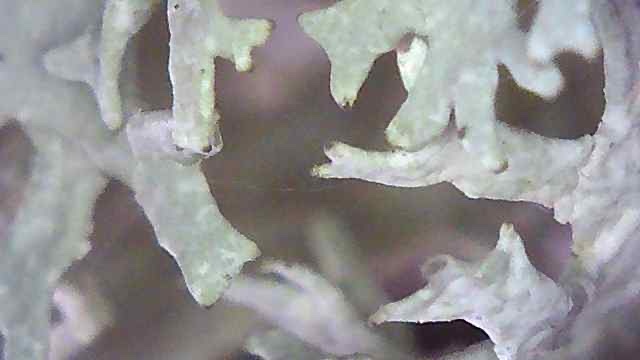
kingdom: Fungi
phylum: Ascomycota
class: Lecanoromycetes
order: Lecanorales
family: Parmeliaceae
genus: Evernia
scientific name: Evernia prunastri
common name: Oak moss
